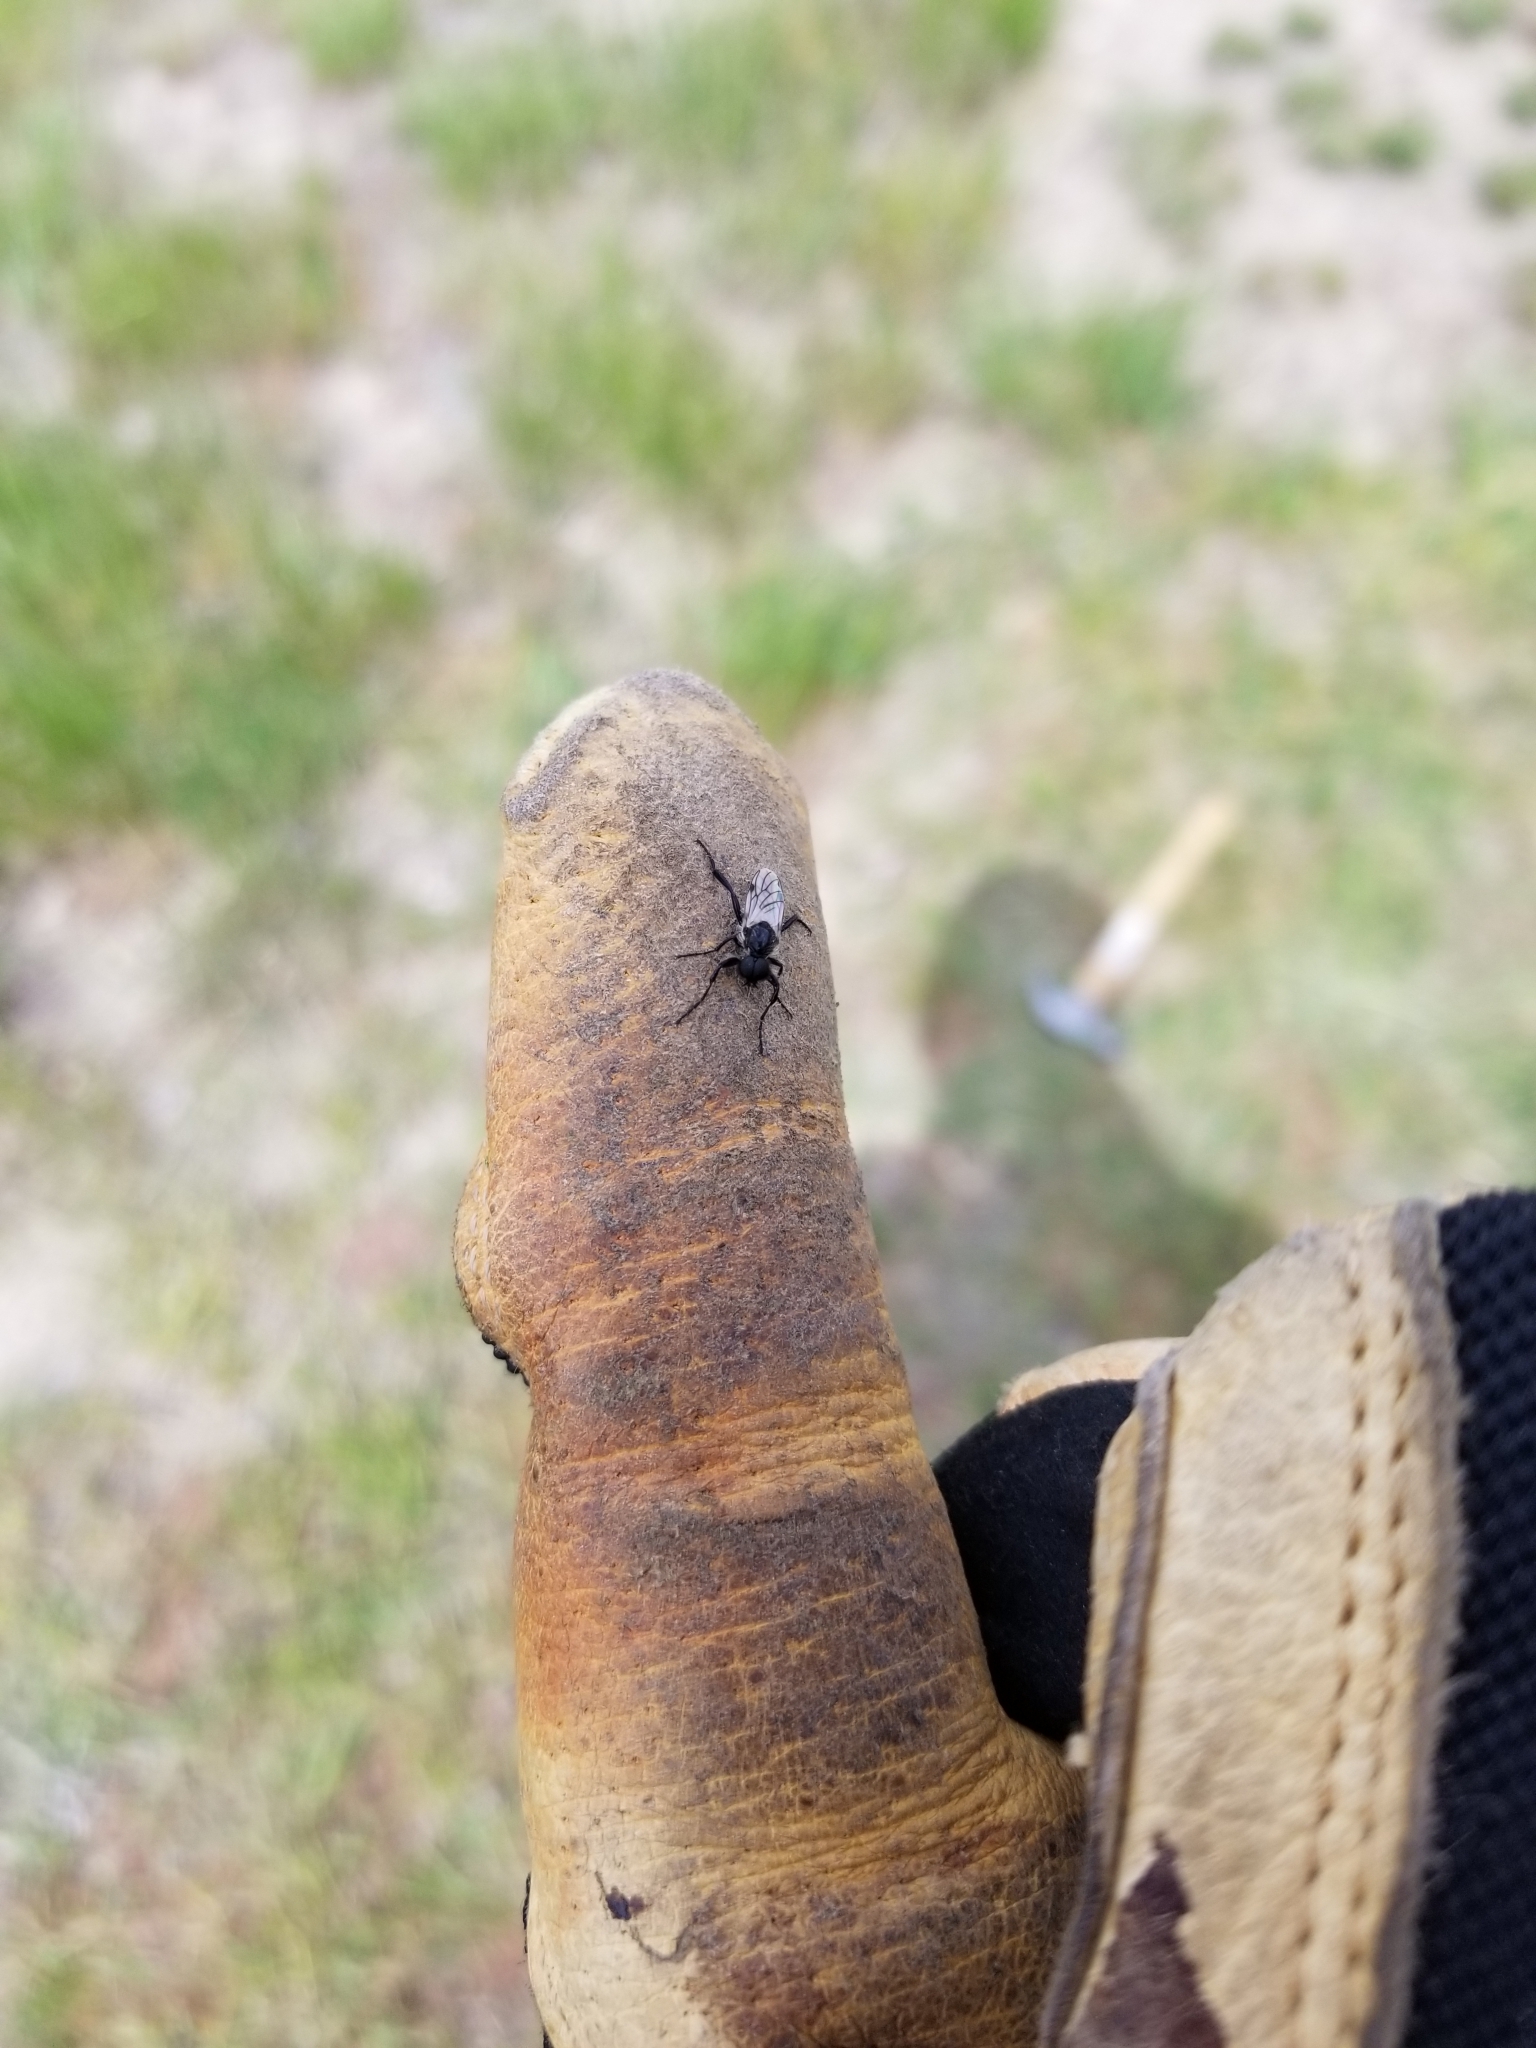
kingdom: Animalia
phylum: Arthropoda
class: Insecta
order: Diptera
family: Bibionidae
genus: Bibio
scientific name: Bibio albipennis
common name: White-winged march fly
